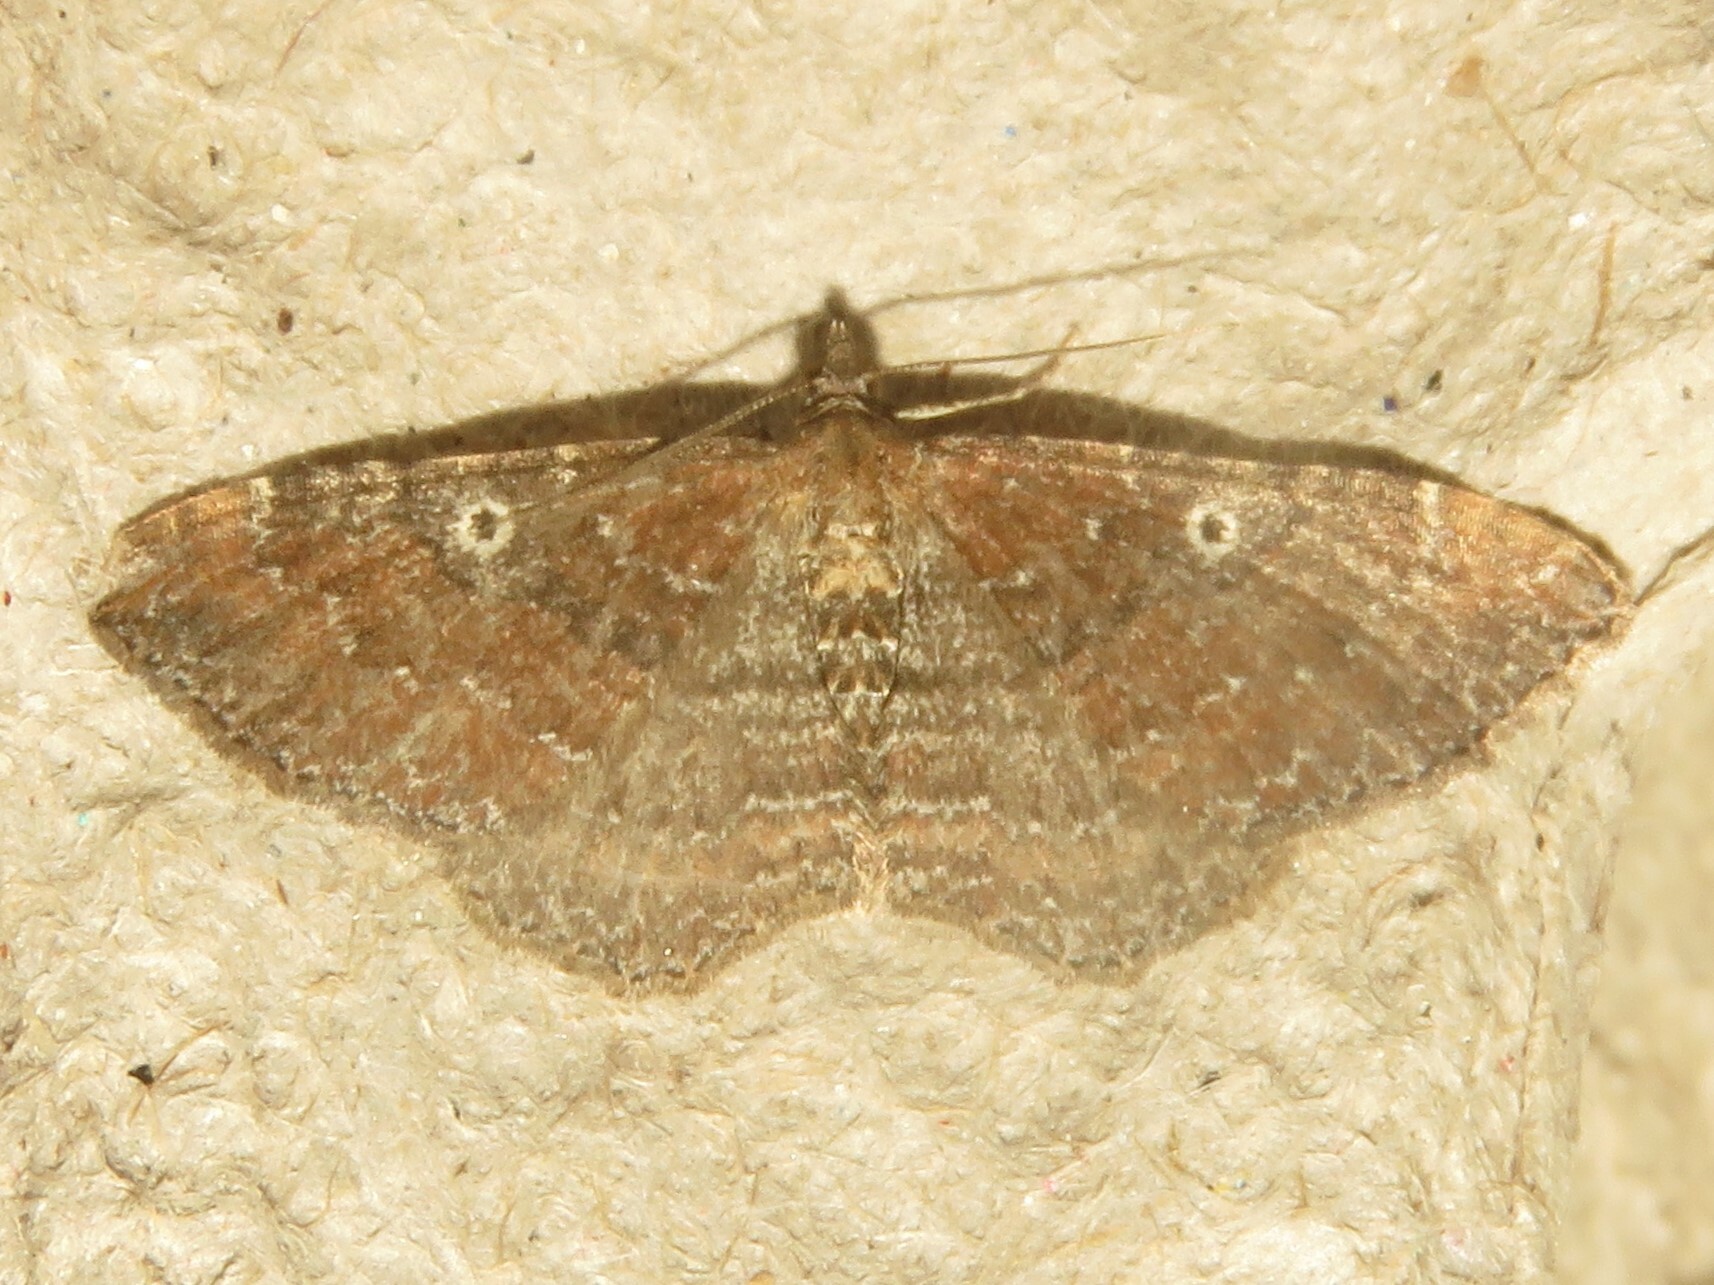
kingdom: Animalia
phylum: Arthropoda
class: Insecta
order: Lepidoptera
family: Geometridae
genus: Orthonama
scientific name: Orthonama obstipata
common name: The gem
